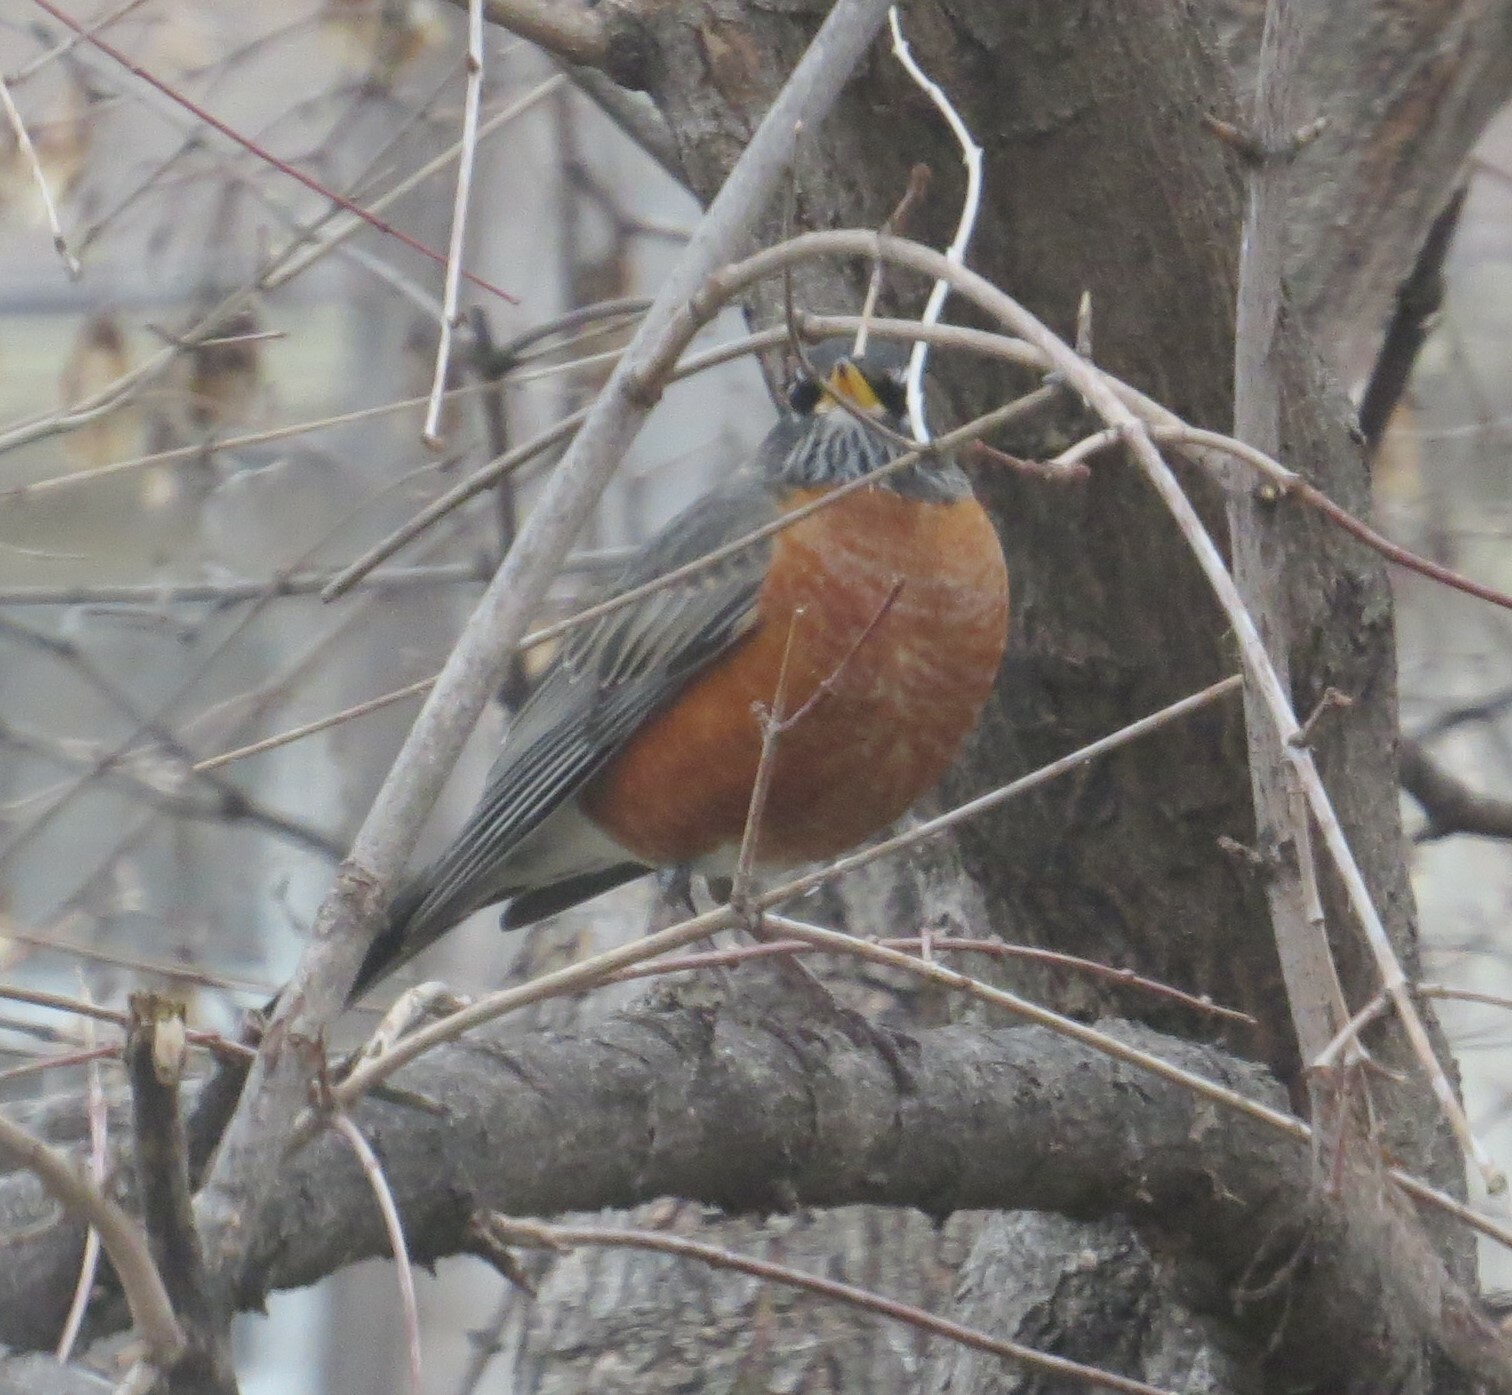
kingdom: Animalia
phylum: Chordata
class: Aves
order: Passeriformes
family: Turdidae
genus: Turdus
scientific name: Turdus migratorius
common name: American robin
